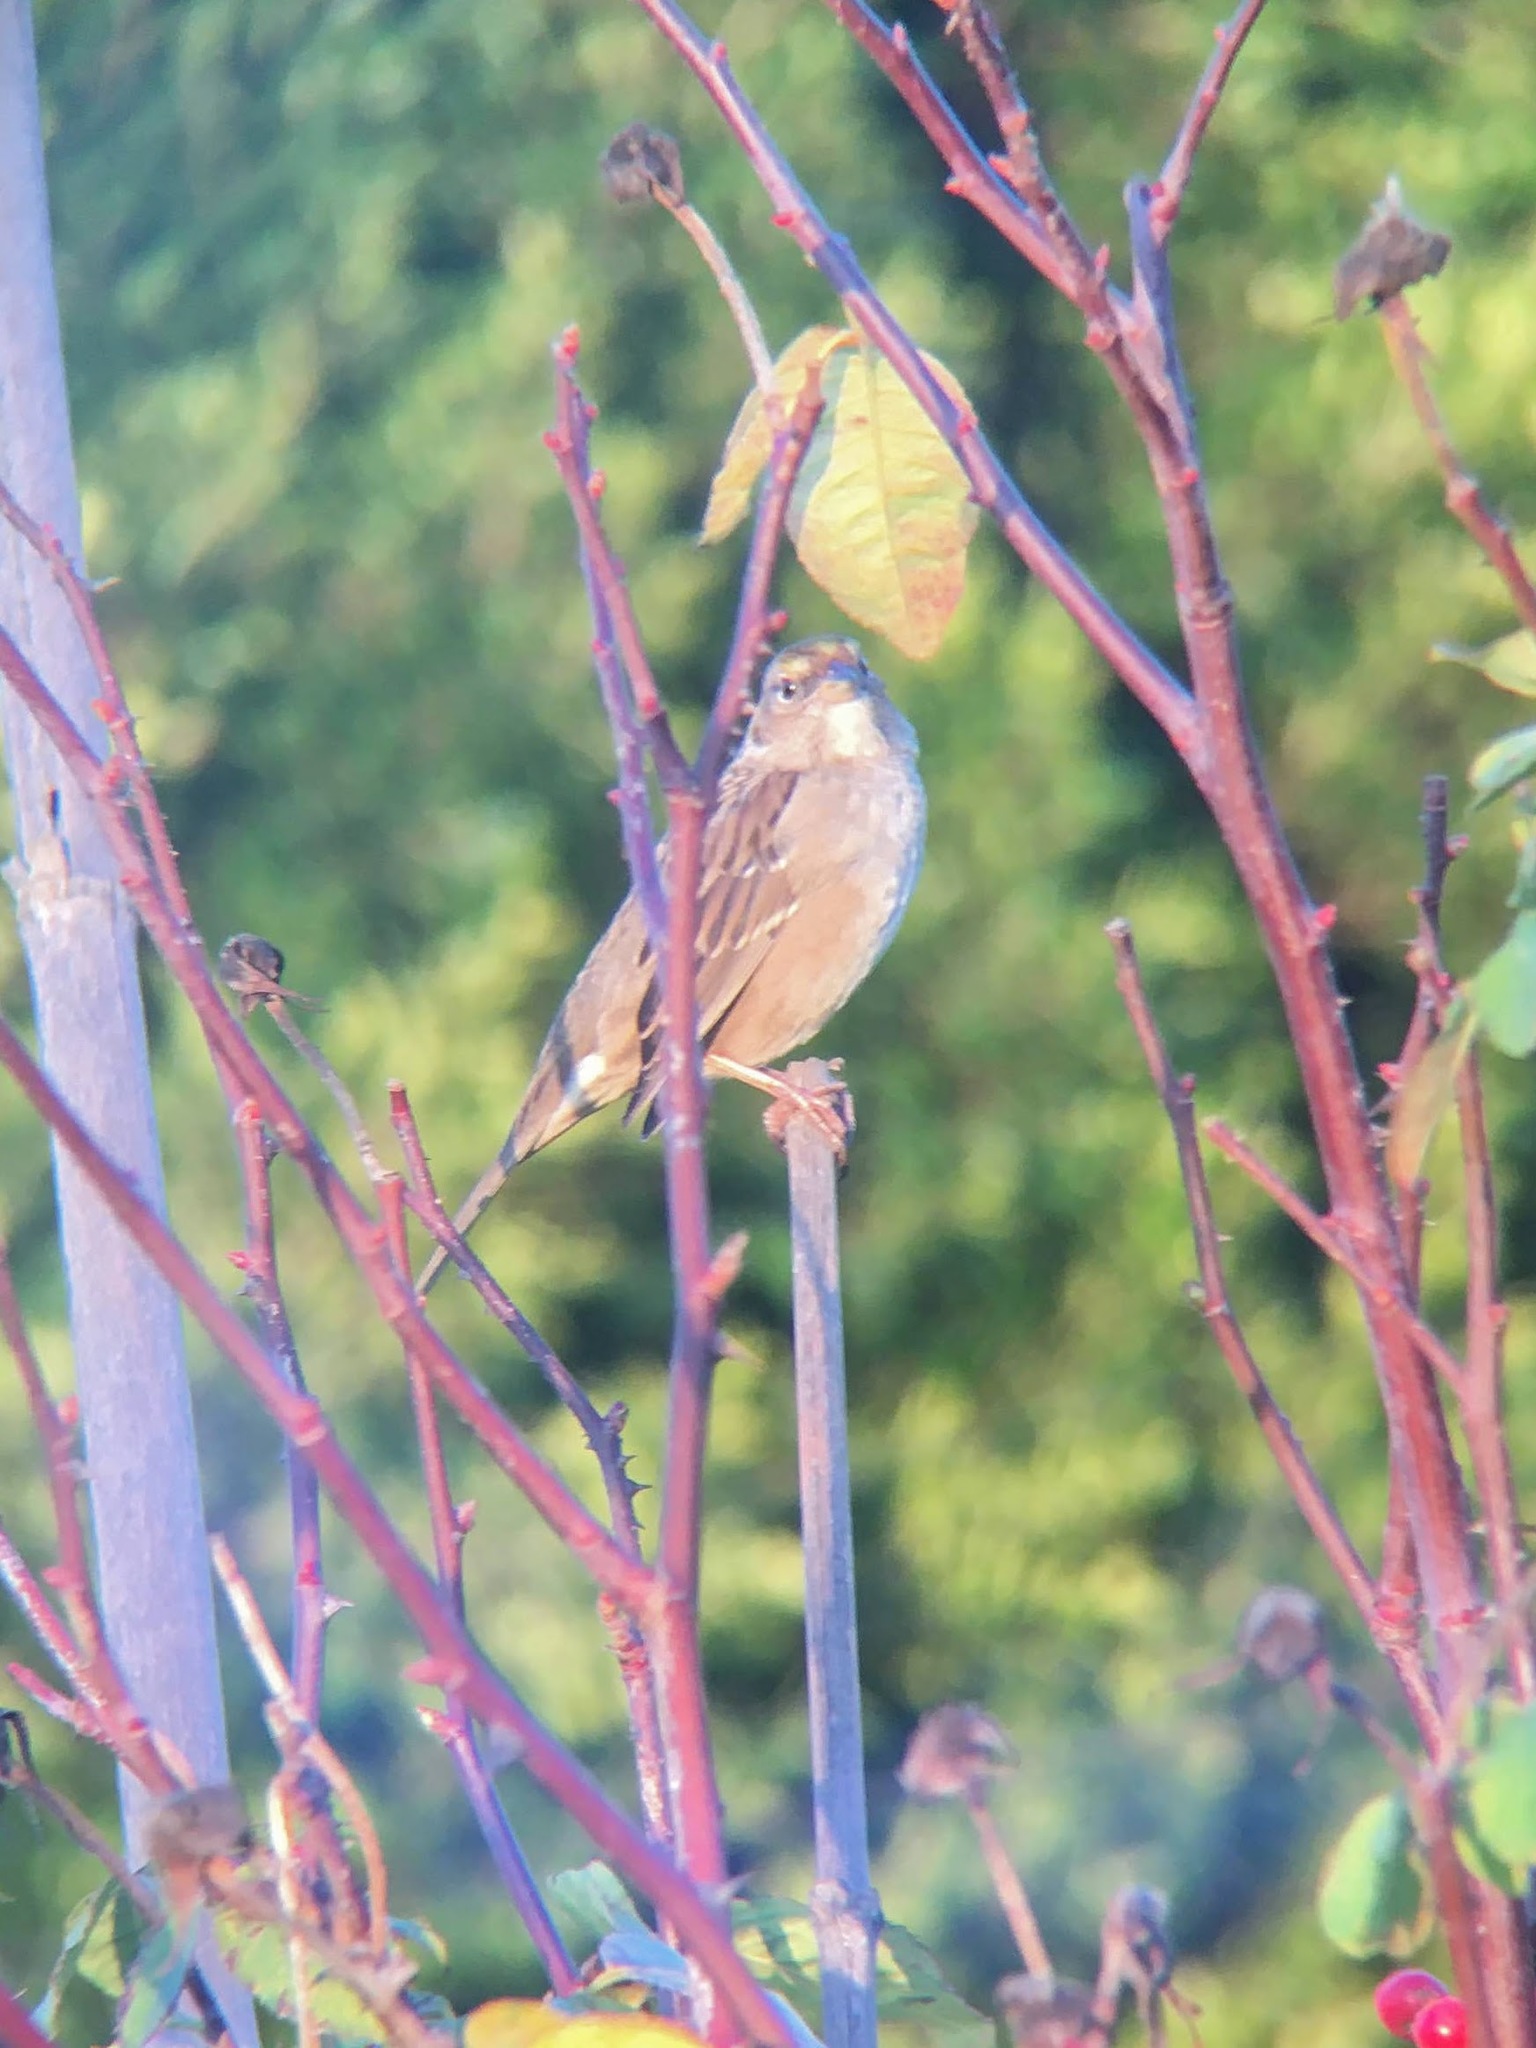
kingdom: Animalia
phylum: Chordata
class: Aves
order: Passeriformes
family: Passerellidae
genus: Zonotrichia
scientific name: Zonotrichia atricapilla
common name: Golden-crowned sparrow
